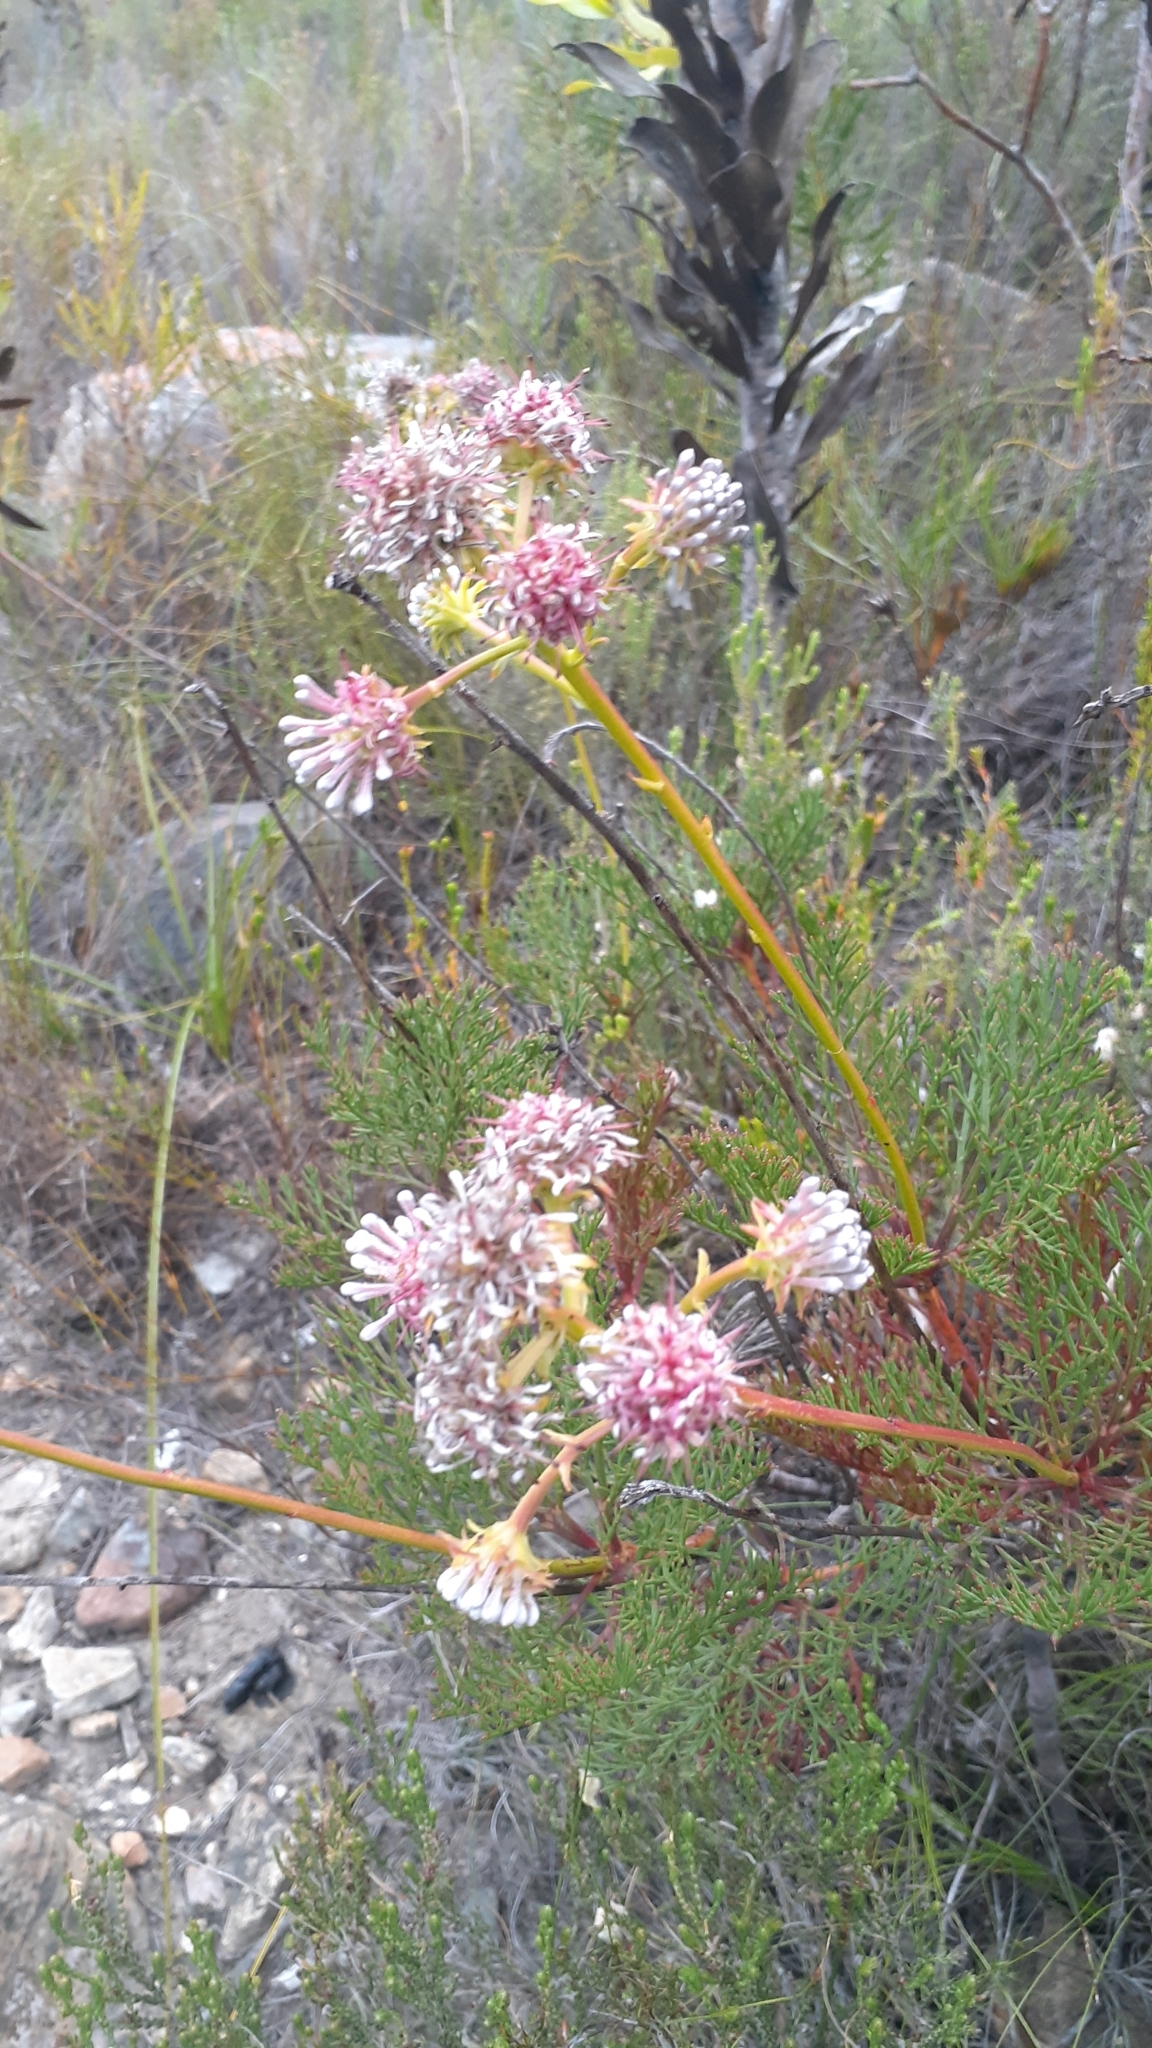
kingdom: Plantae
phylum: Tracheophyta
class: Magnoliopsida
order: Proteales
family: Proteaceae
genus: Serruria
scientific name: Serruria elongata
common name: Long-stalk spiderhead
